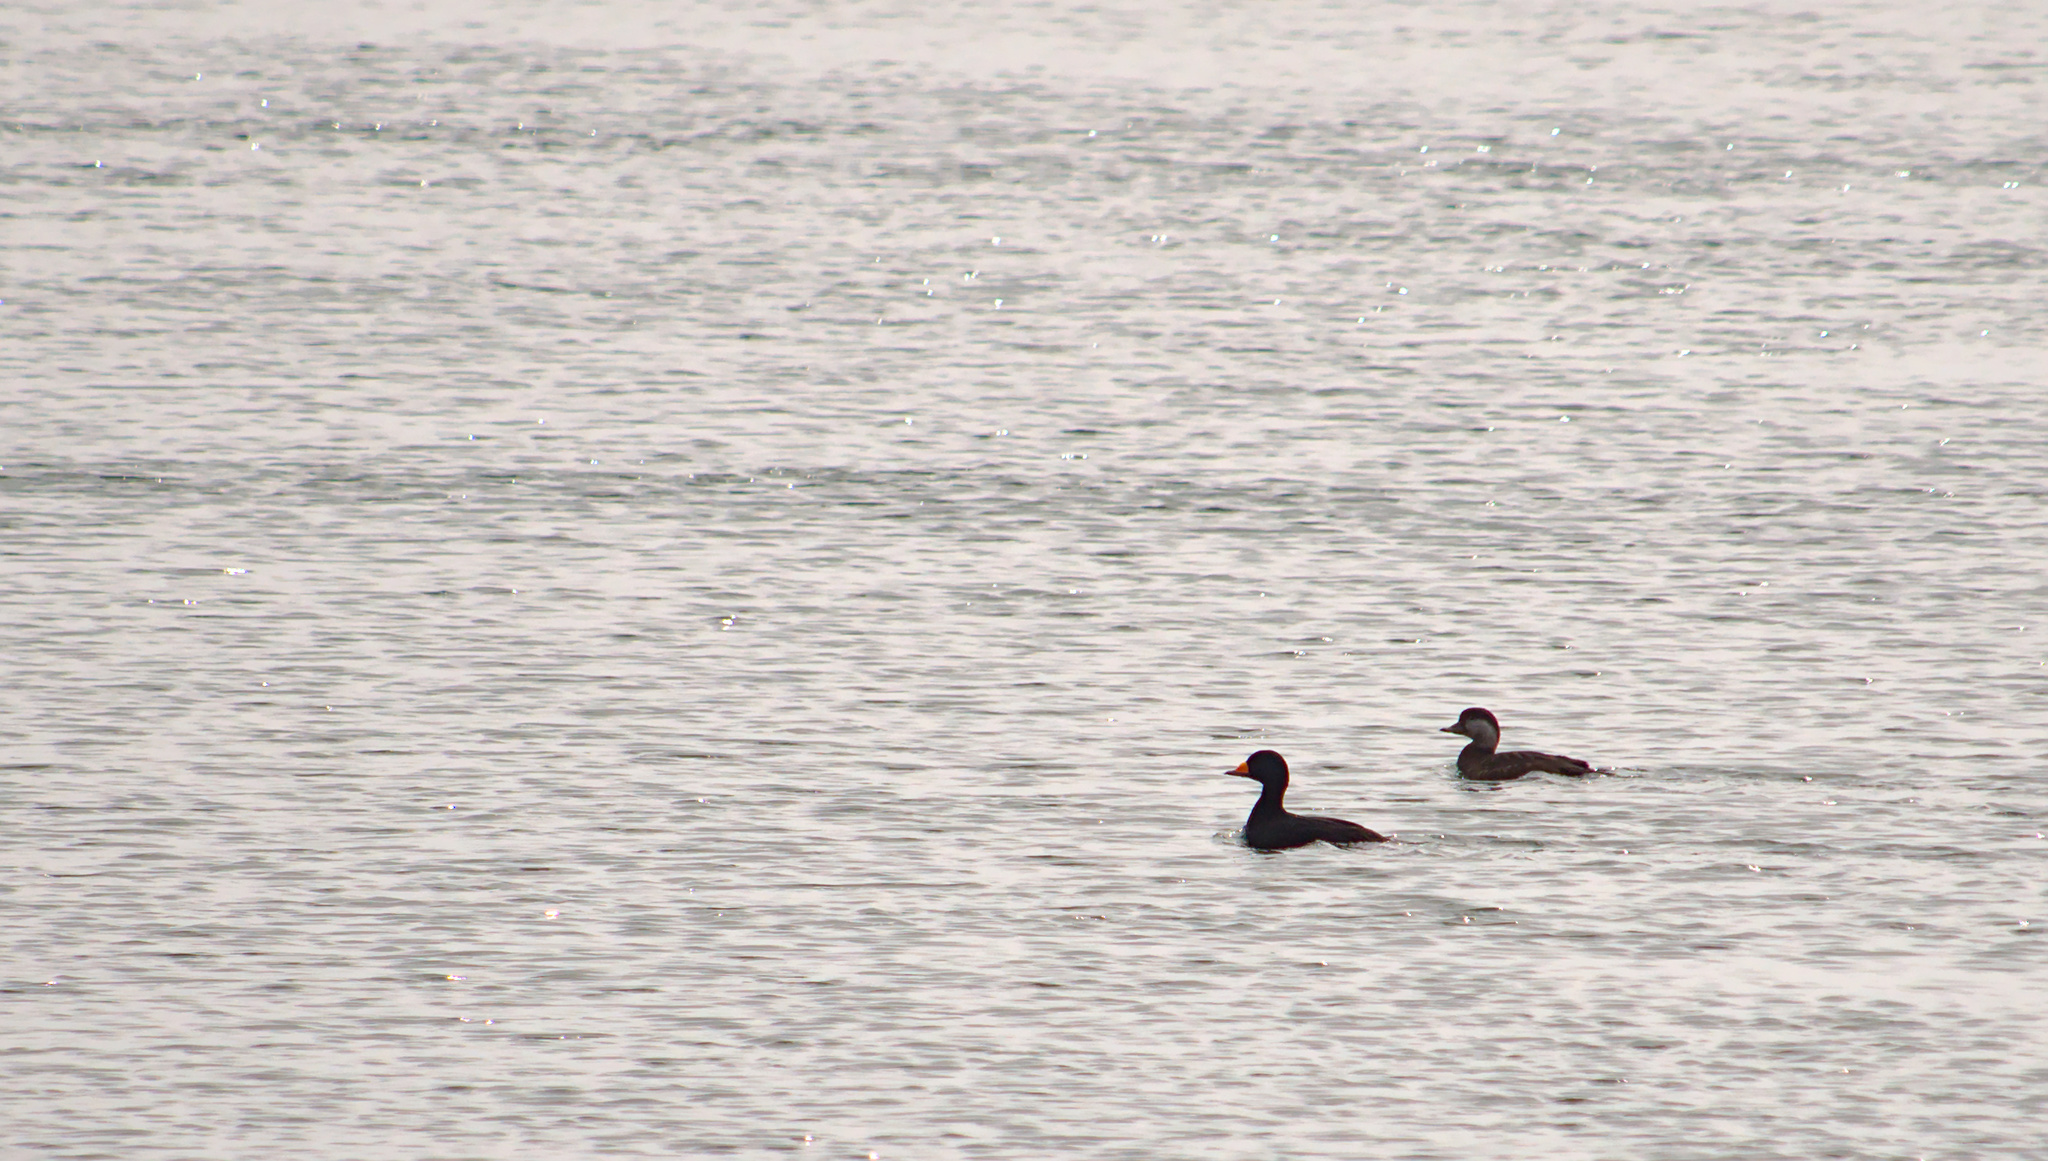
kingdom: Animalia
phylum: Chordata
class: Aves
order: Anseriformes
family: Anatidae
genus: Melanitta
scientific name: Melanitta americana
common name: Black scoter
